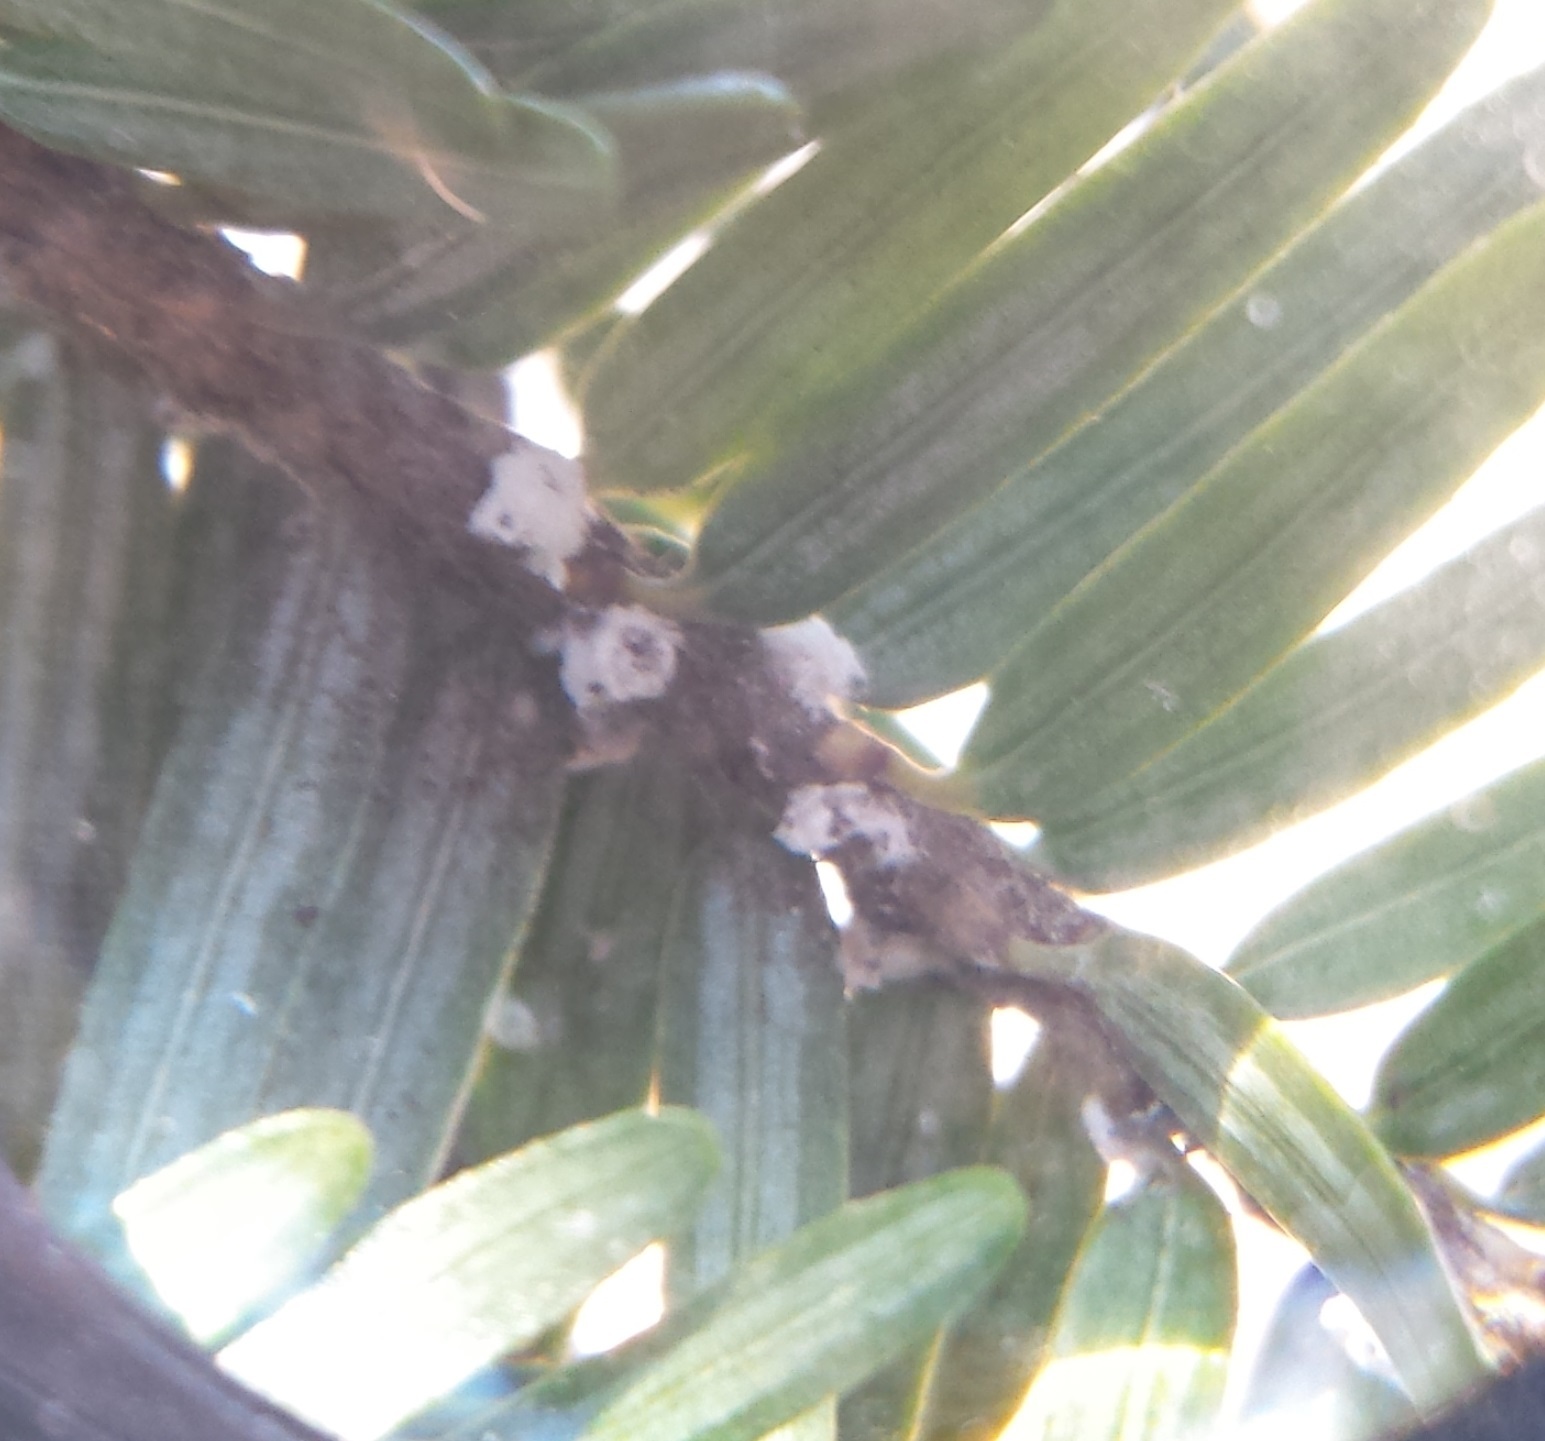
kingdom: Animalia
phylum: Arthropoda
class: Insecta
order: Hemiptera
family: Adelgidae
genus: Adelges
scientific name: Adelges tsugae
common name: Hemlock woolly adelgid
